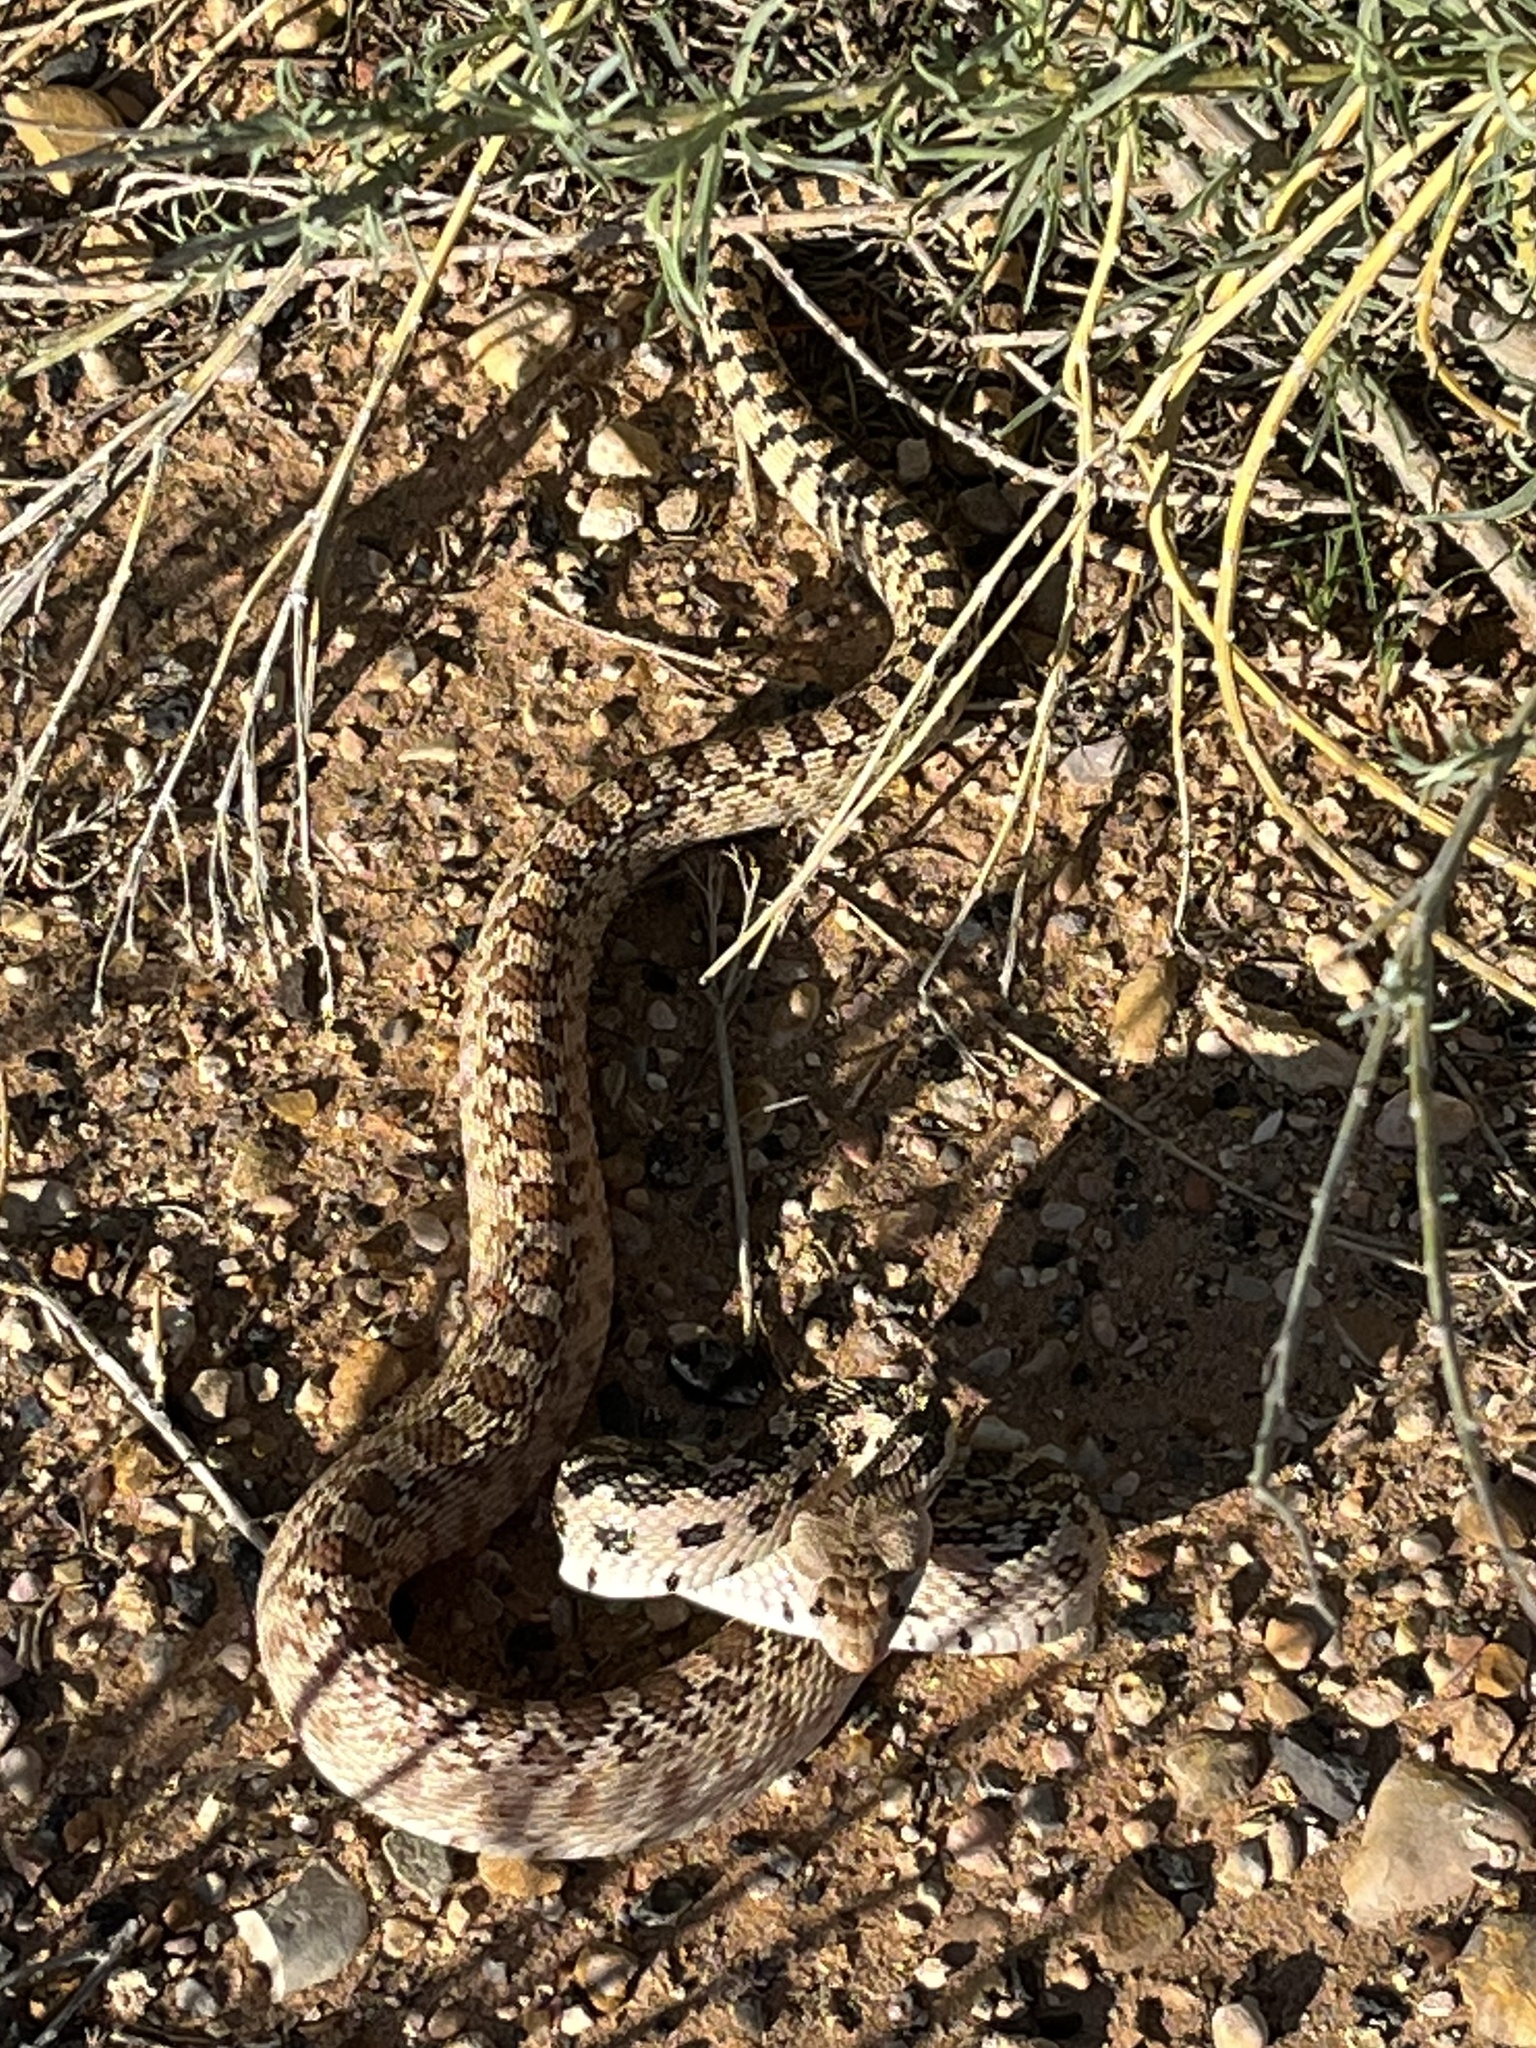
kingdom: Animalia
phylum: Chordata
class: Squamata
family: Colubridae
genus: Pituophis
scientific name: Pituophis catenifer
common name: Gopher snake
